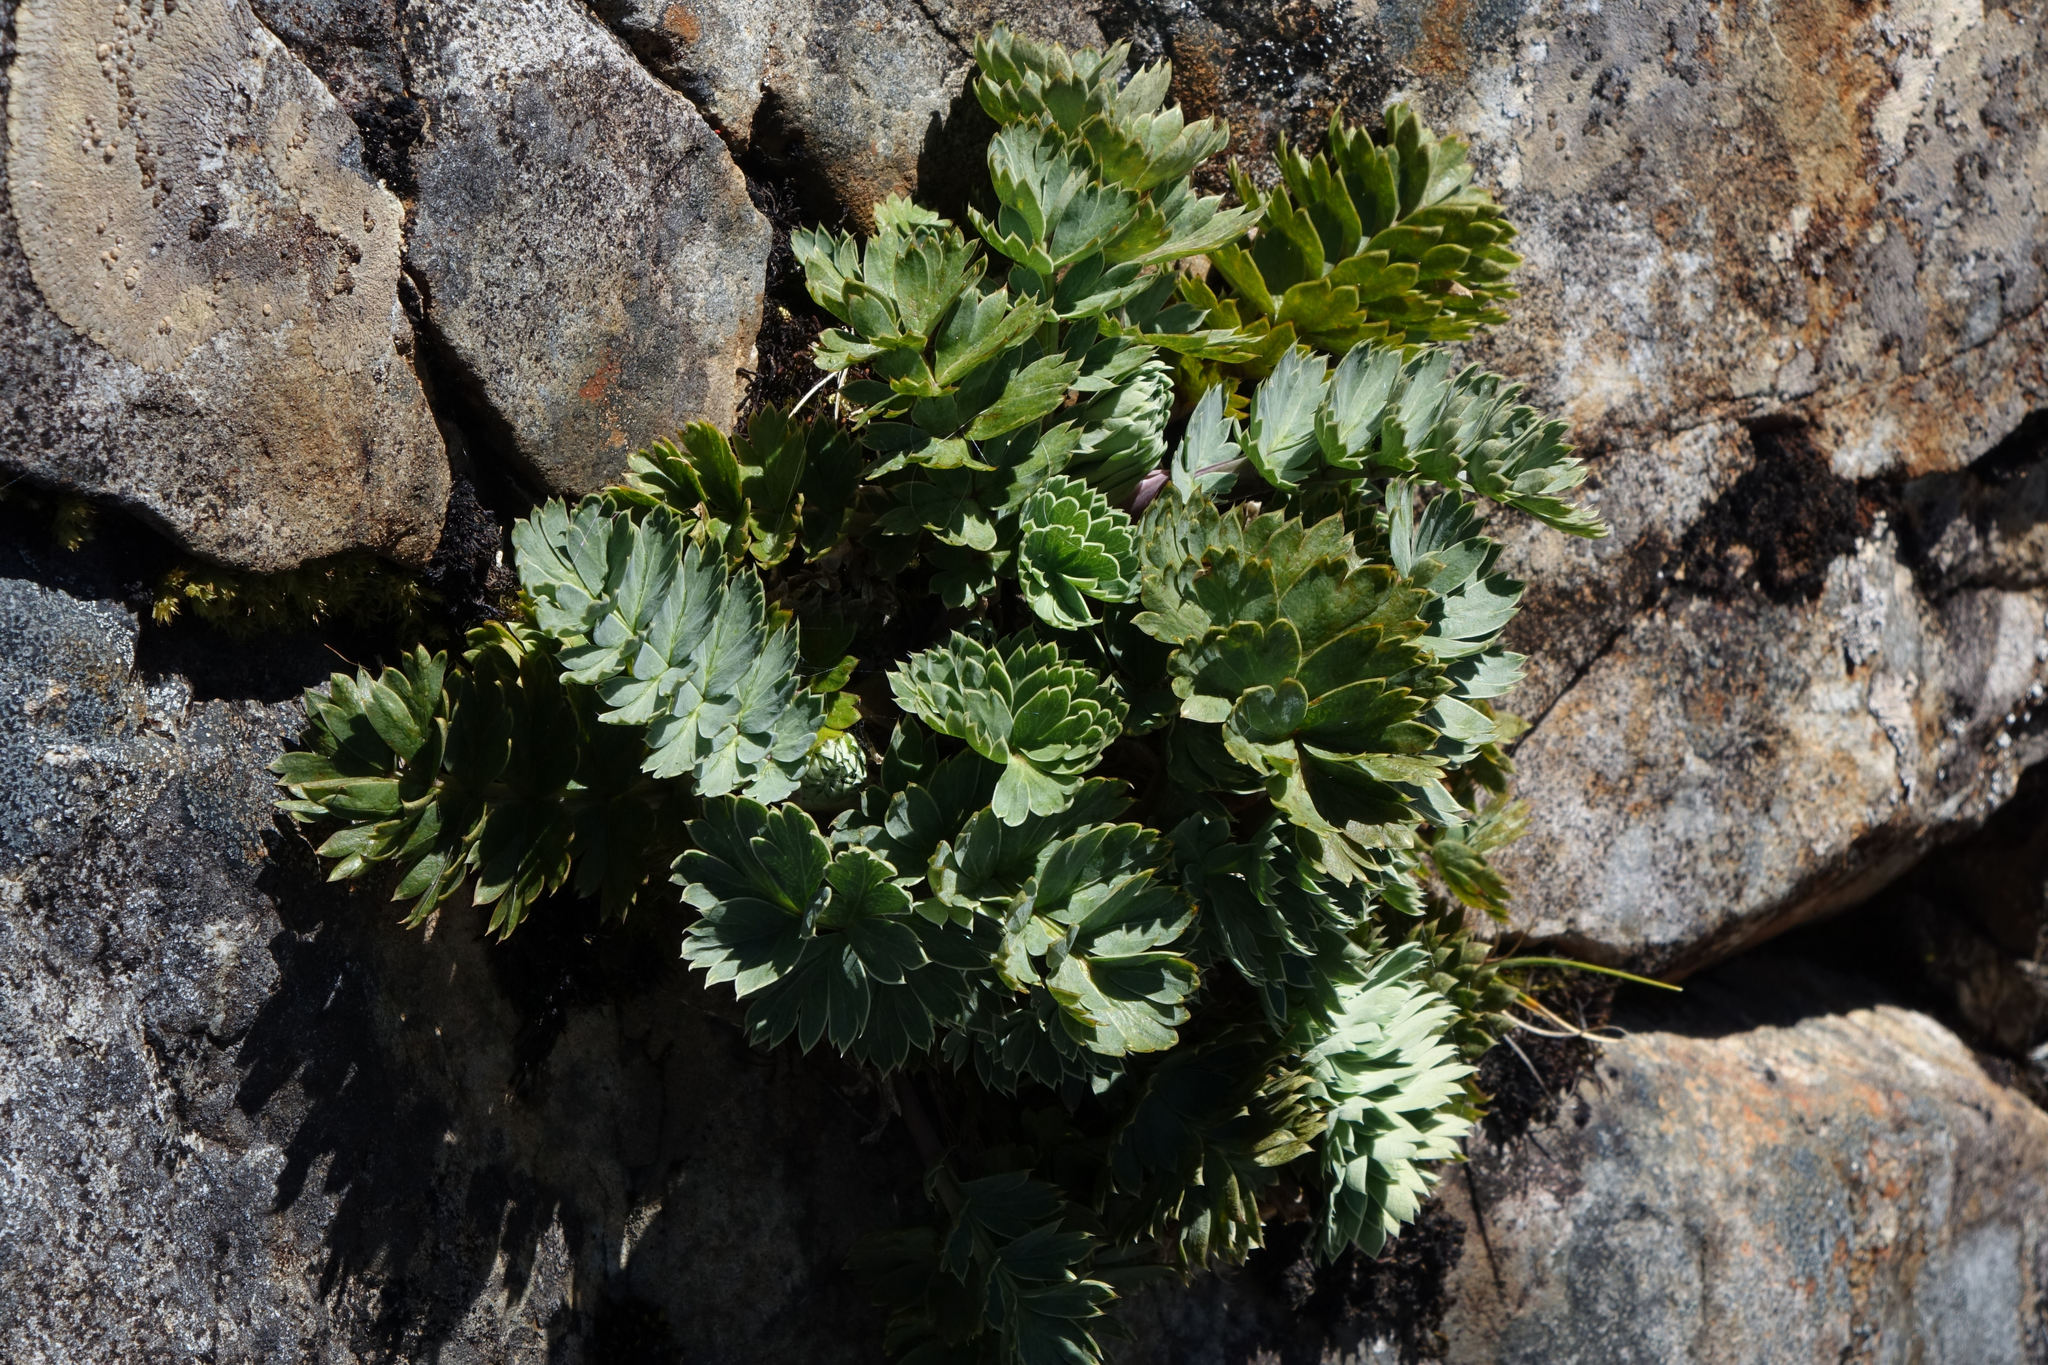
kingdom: Plantae
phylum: Tracheophyta
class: Magnoliopsida
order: Apiales
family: Apiaceae
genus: Anisotome
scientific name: Anisotome pilifera
